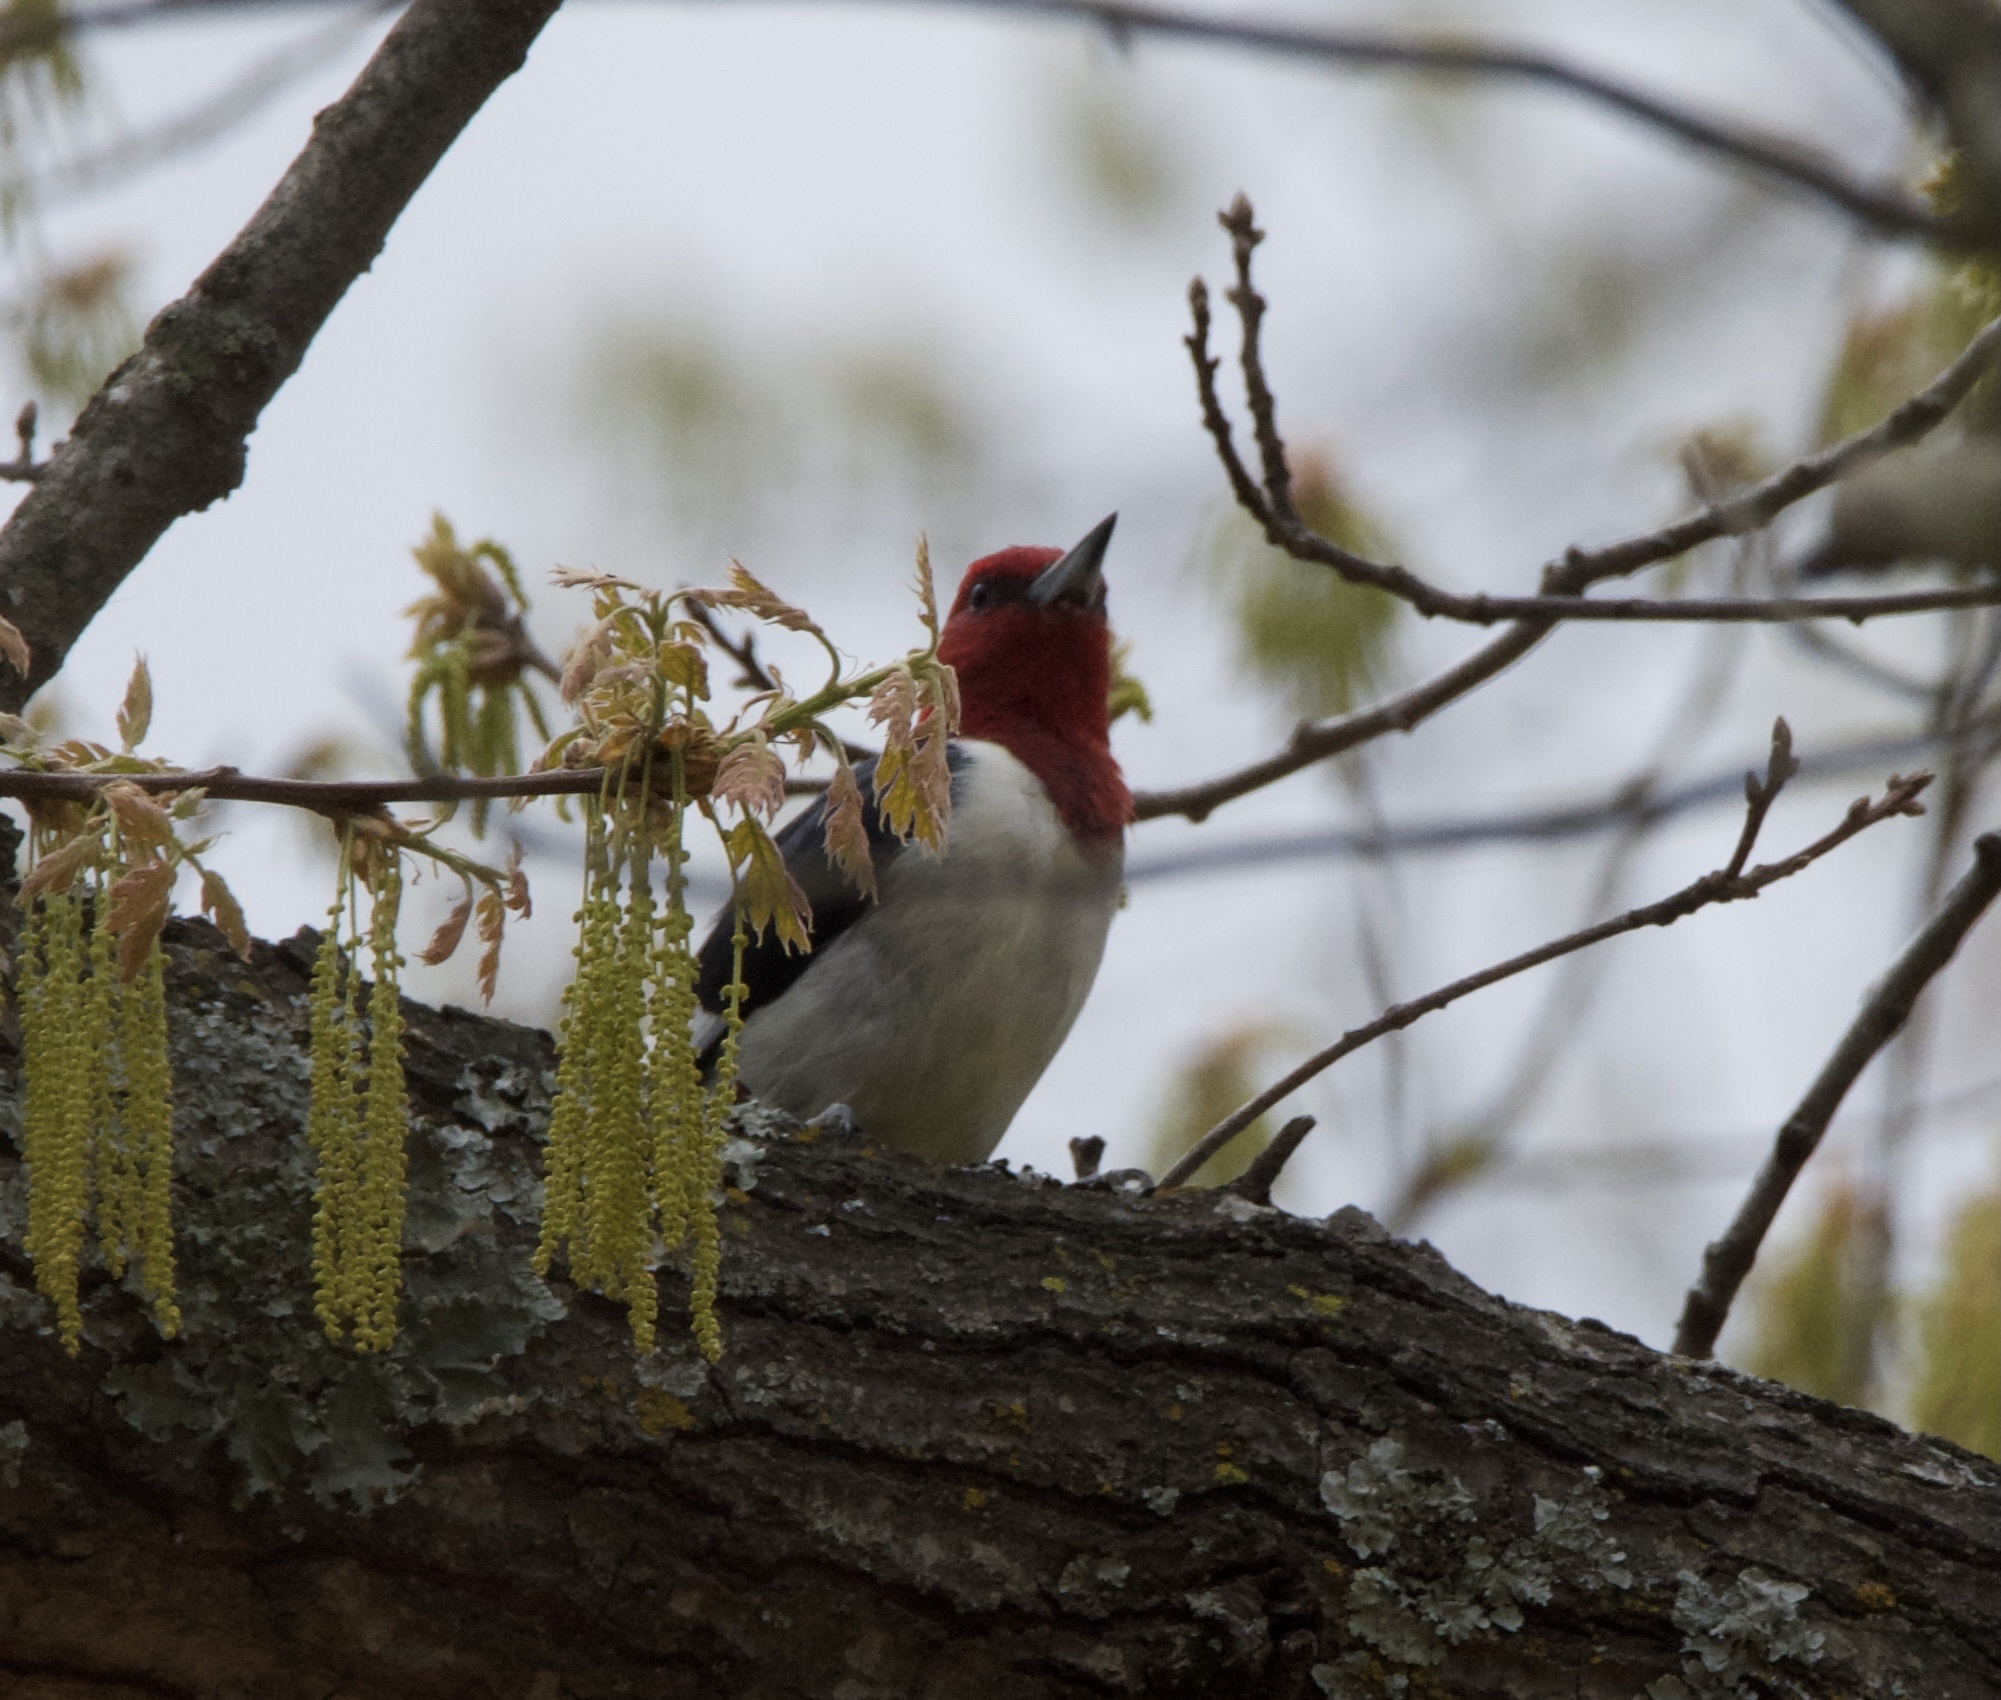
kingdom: Animalia
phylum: Chordata
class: Aves
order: Piciformes
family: Picidae
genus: Melanerpes
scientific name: Melanerpes erythrocephalus
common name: Red-headed woodpecker
